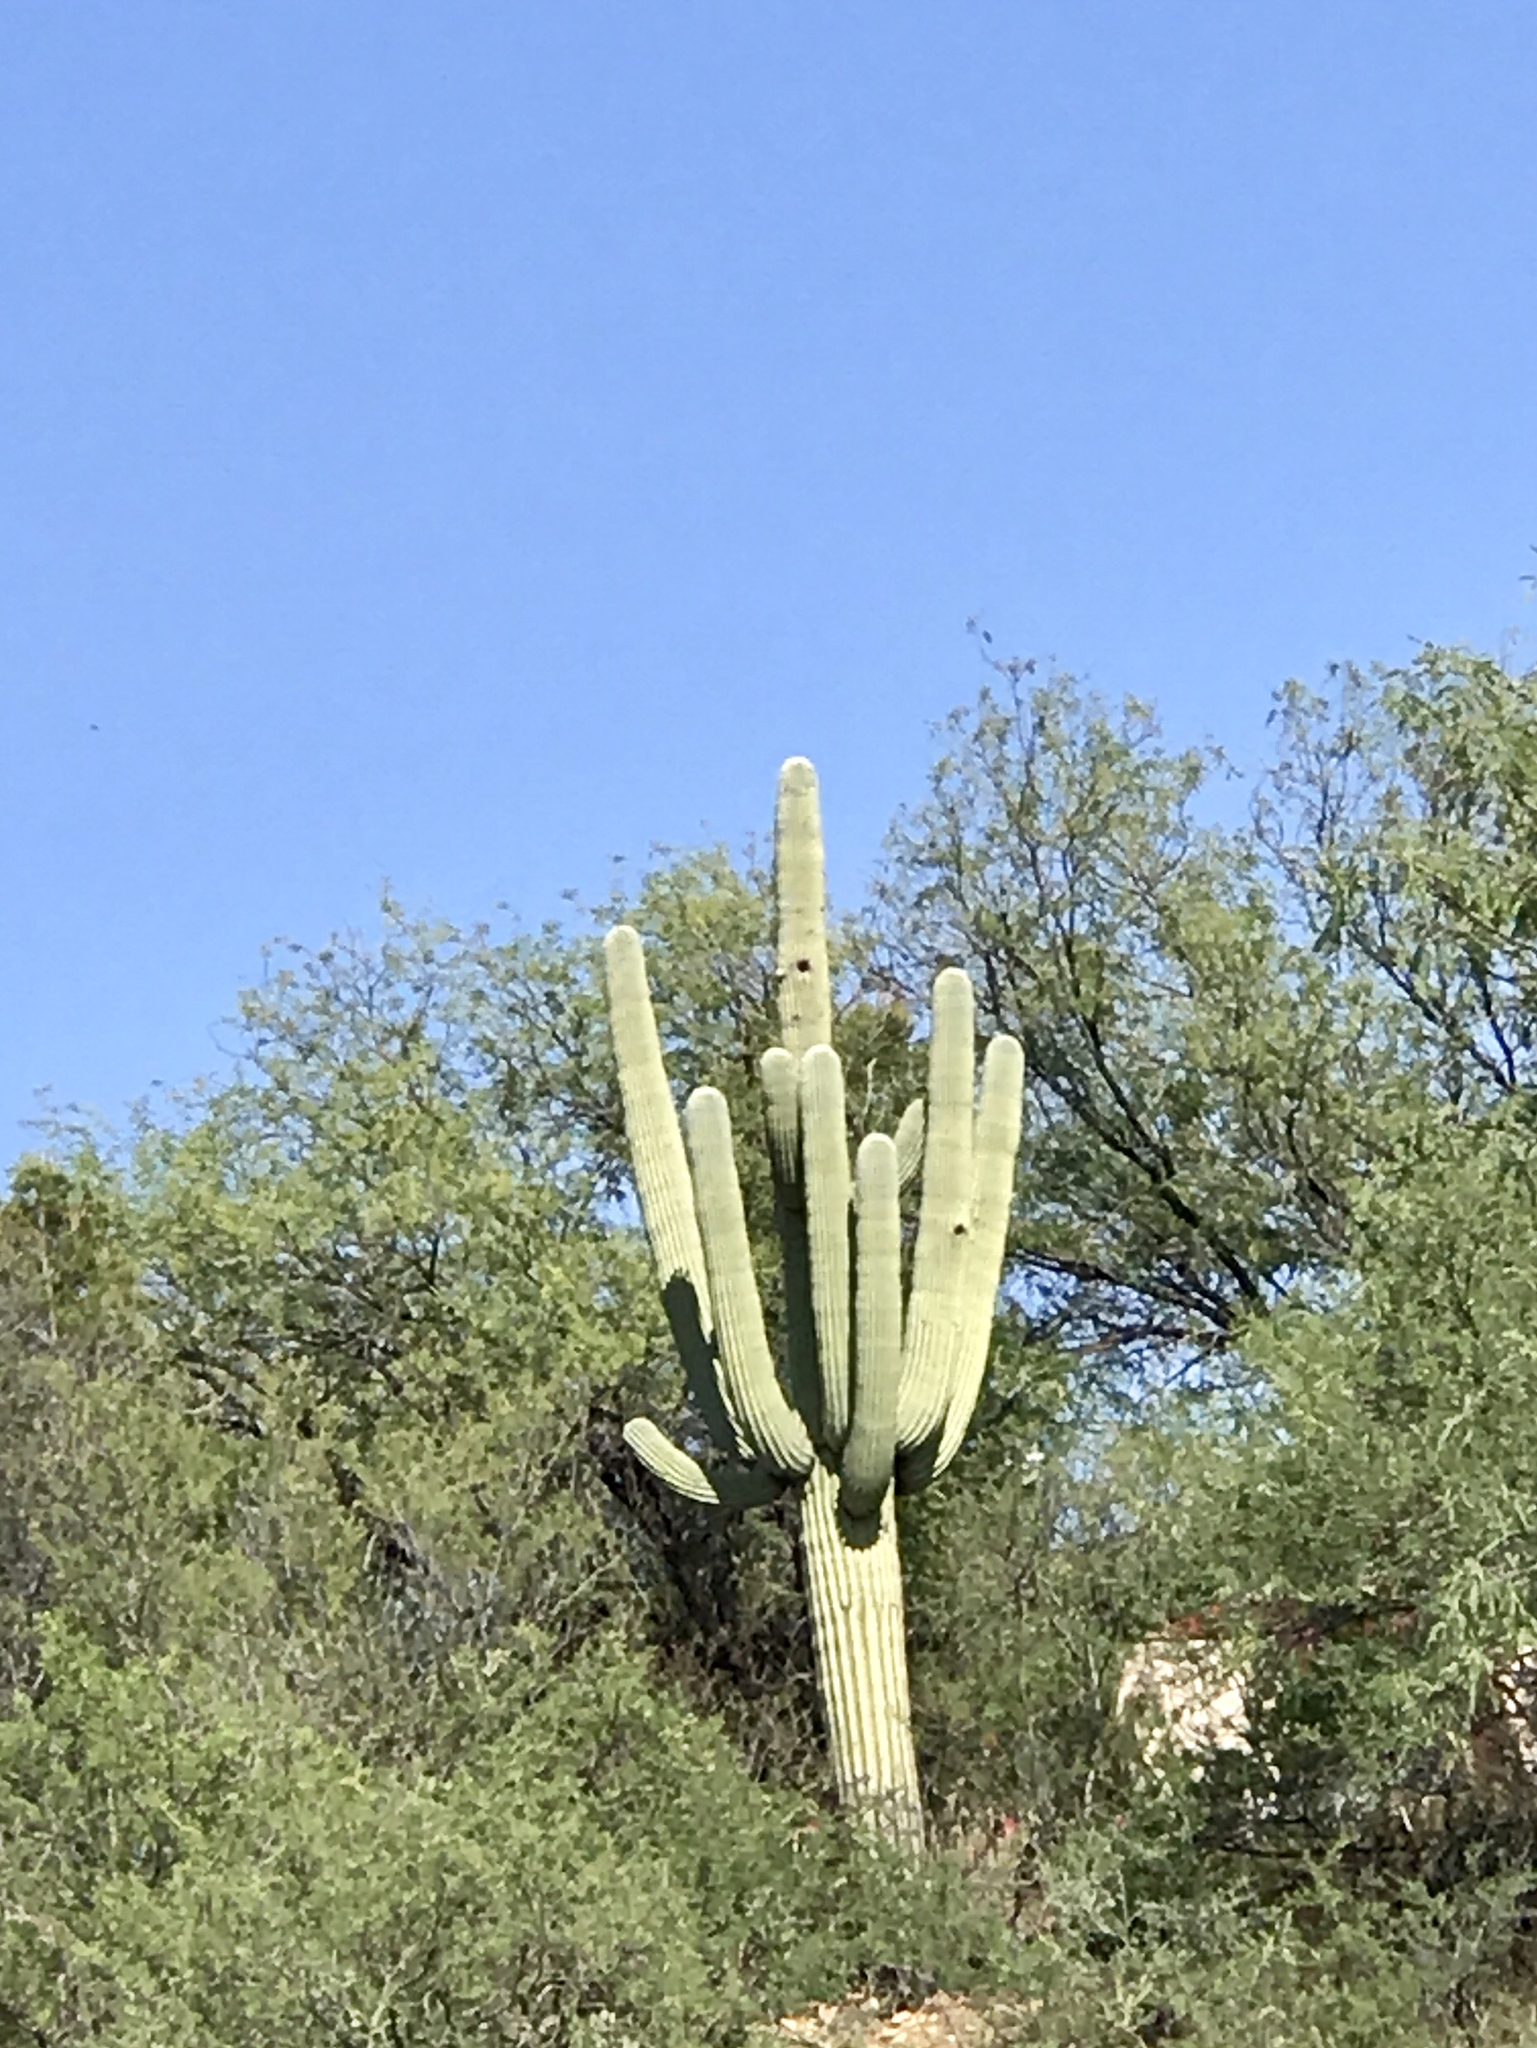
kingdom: Plantae
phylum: Tracheophyta
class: Magnoliopsida
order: Caryophyllales
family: Cactaceae
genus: Carnegiea
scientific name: Carnegiea gigantea
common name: Saguaro
